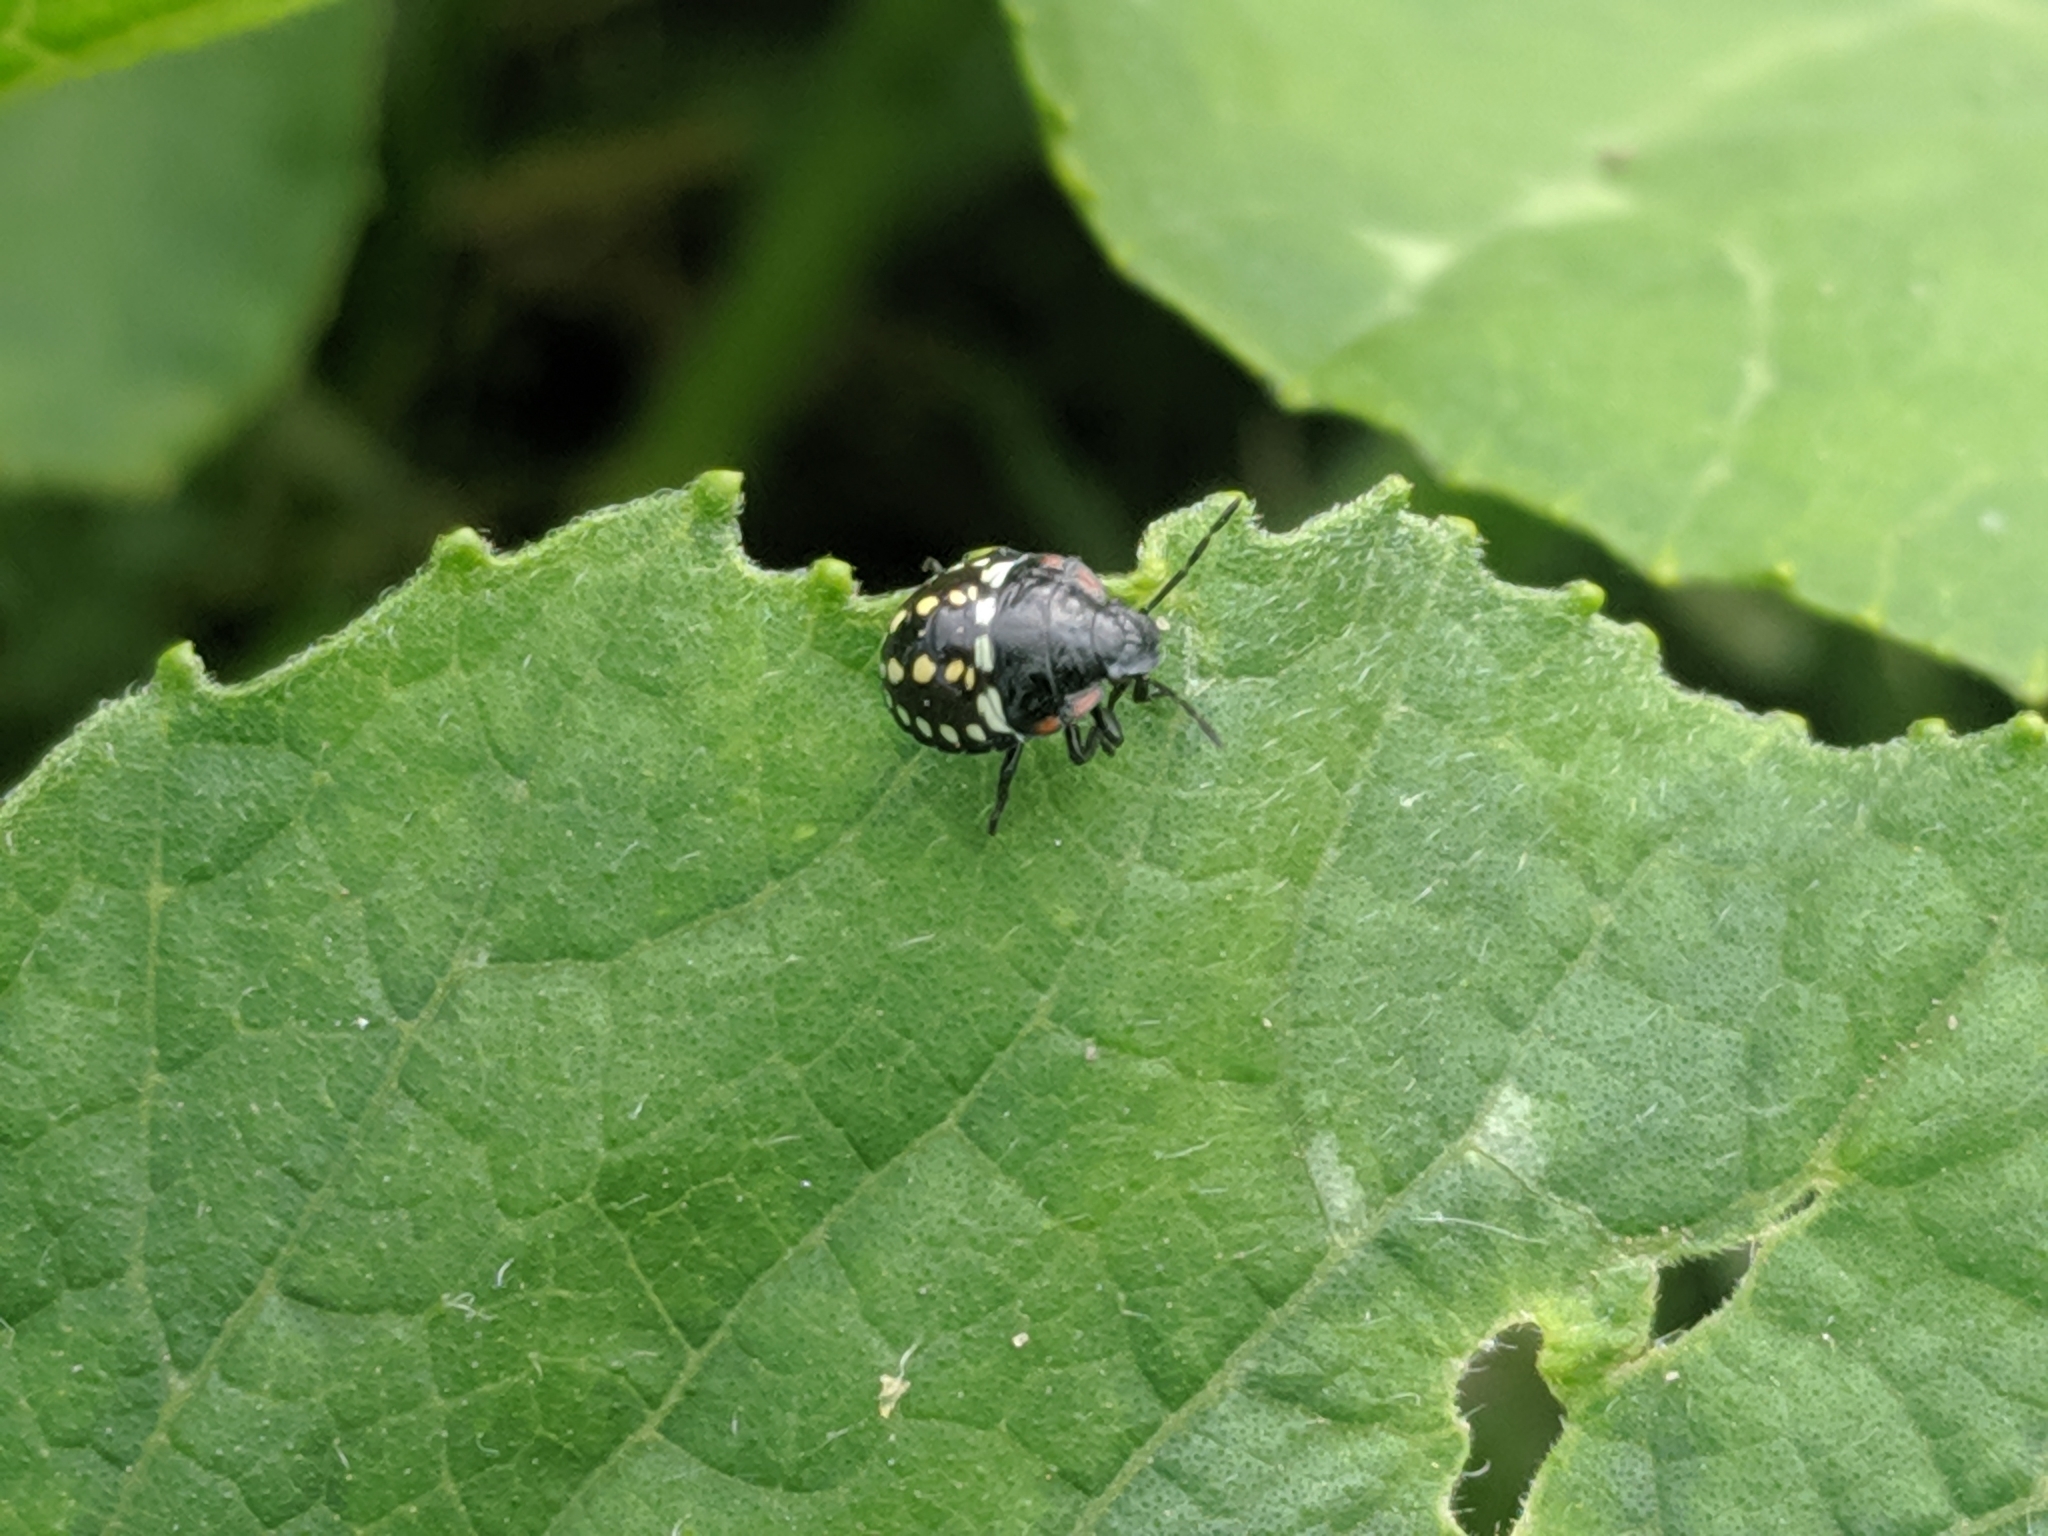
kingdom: Animalia
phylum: Arthropoda
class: Insecta
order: Hemiptera
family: Pentatomidae
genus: Nezara
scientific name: Nezara viridula
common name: Southern green stink bug
